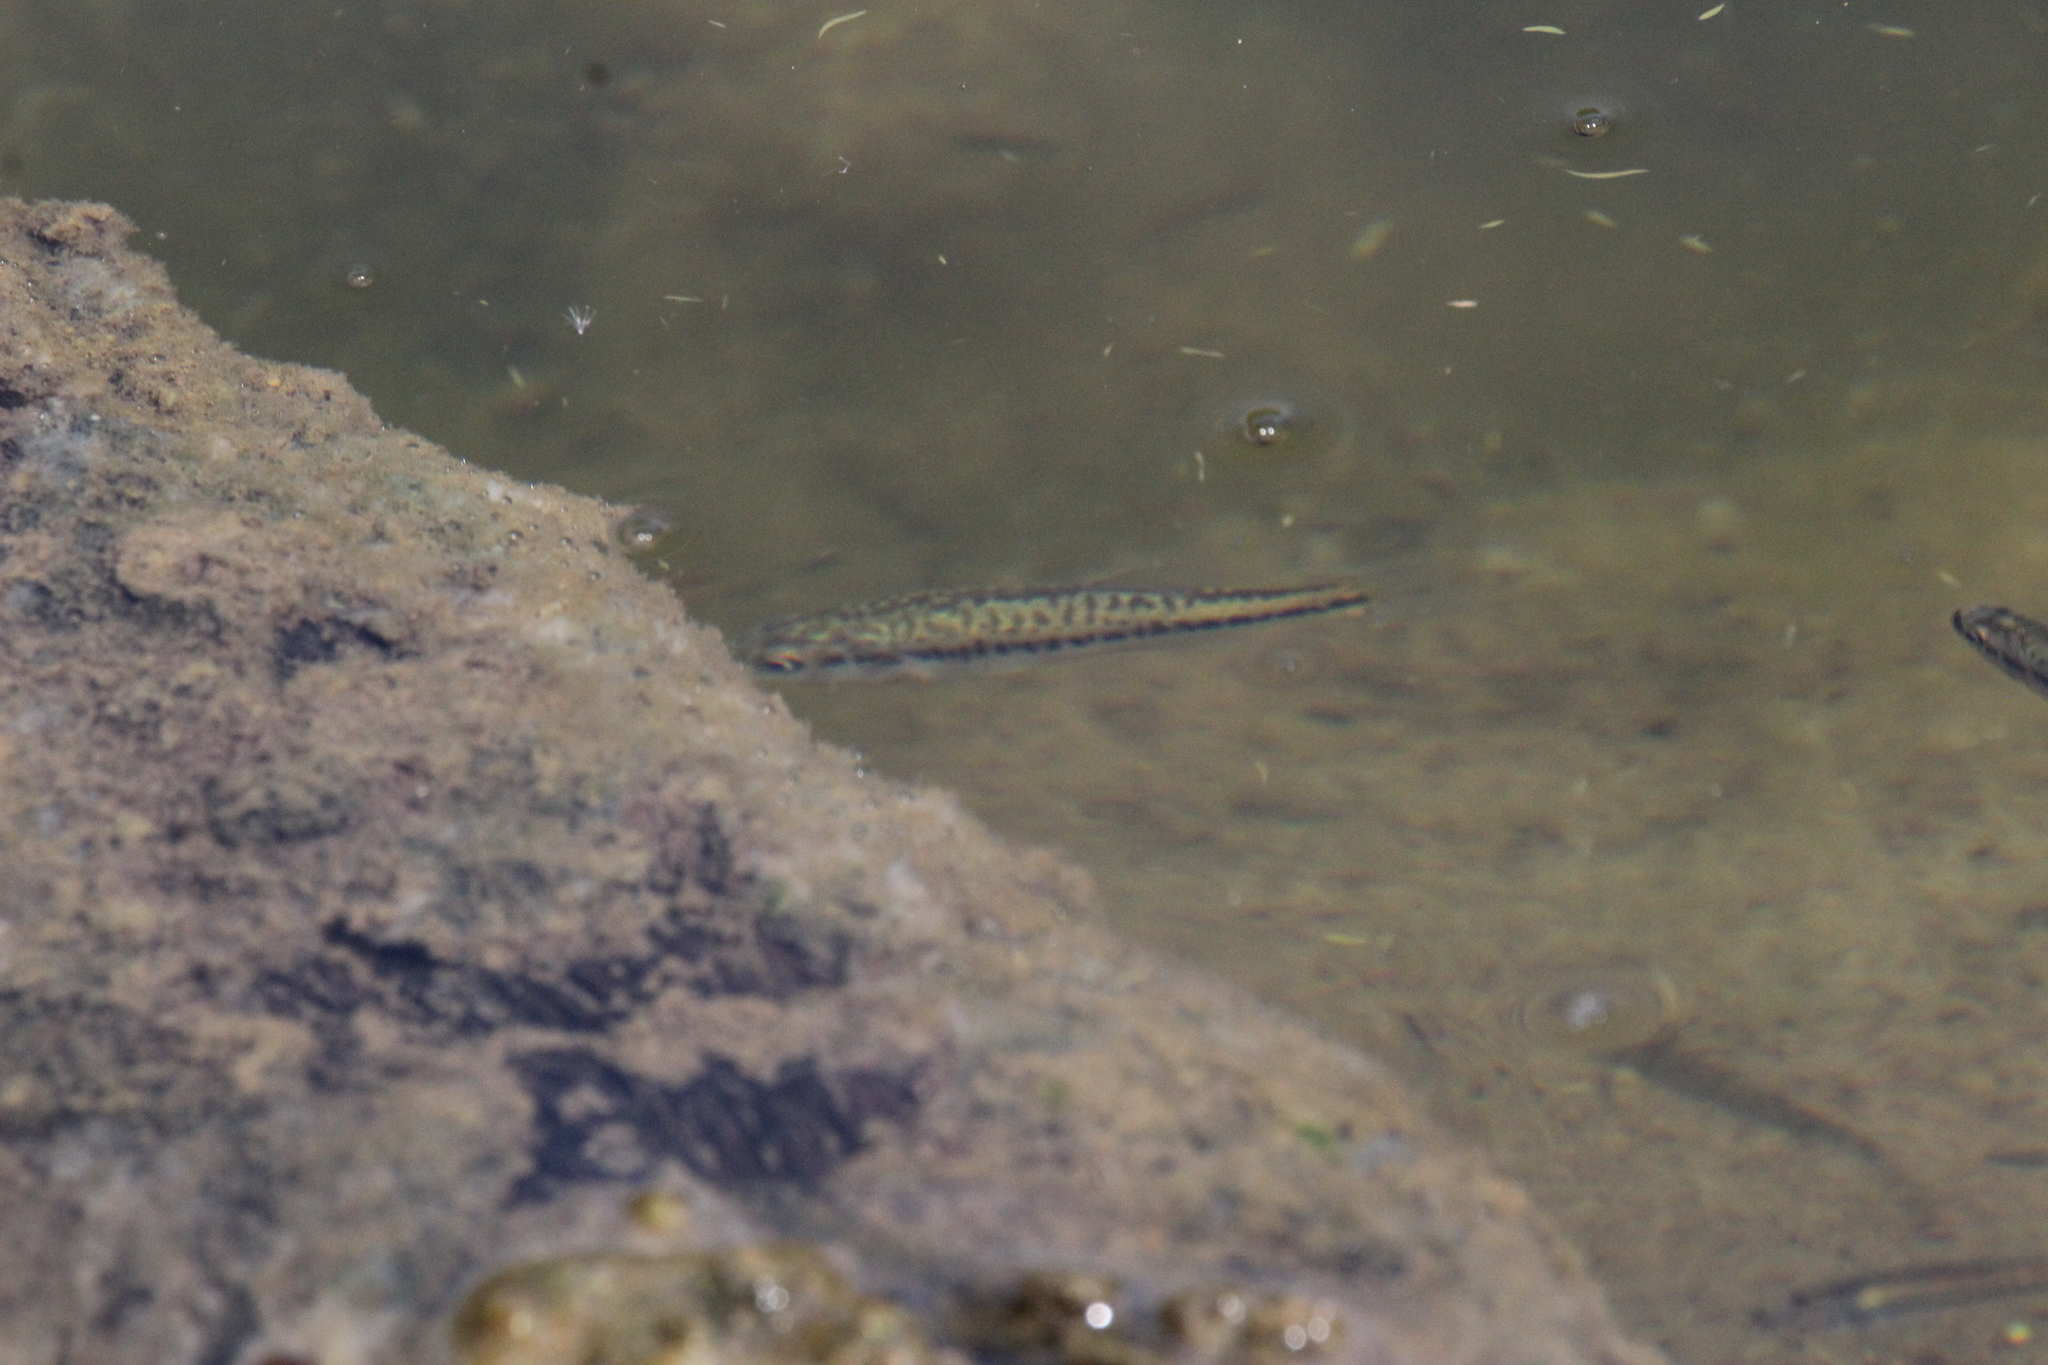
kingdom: Animalia
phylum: Chordata
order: Perciformes
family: Centrarchidae
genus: Micropterus
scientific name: Micropterus
